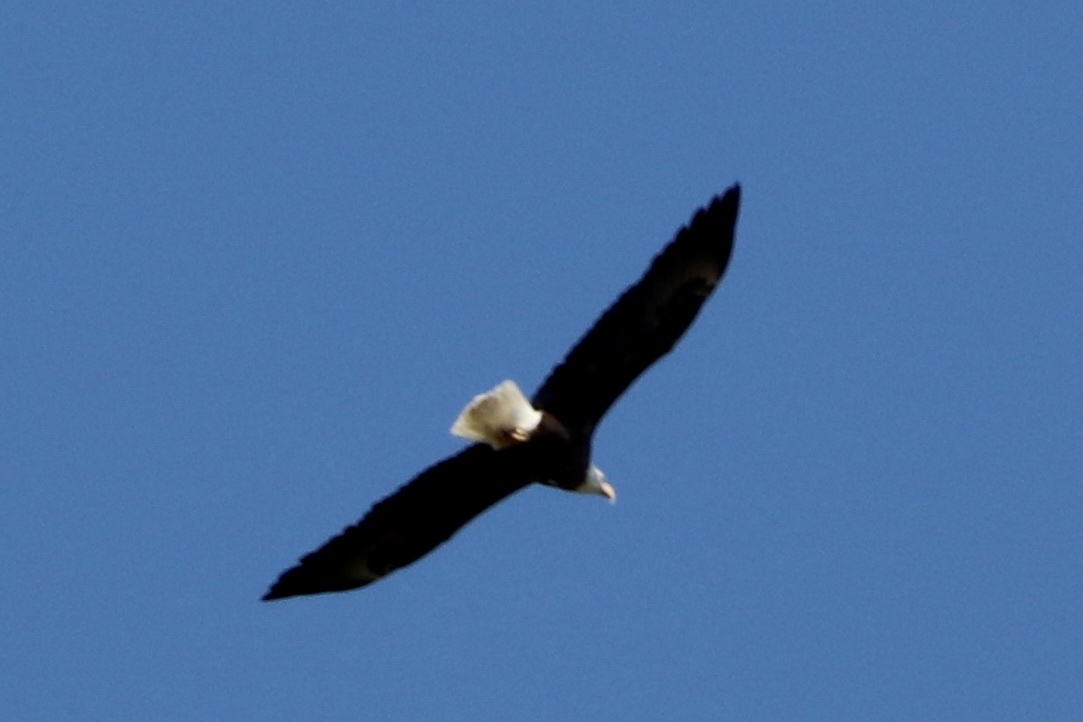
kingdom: Animalia
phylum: Chordata
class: Aves
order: Accipitriformes
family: Accipitridae
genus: Haliaeetus
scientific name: Haliaeetus leucocephalus
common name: Bald eagle
